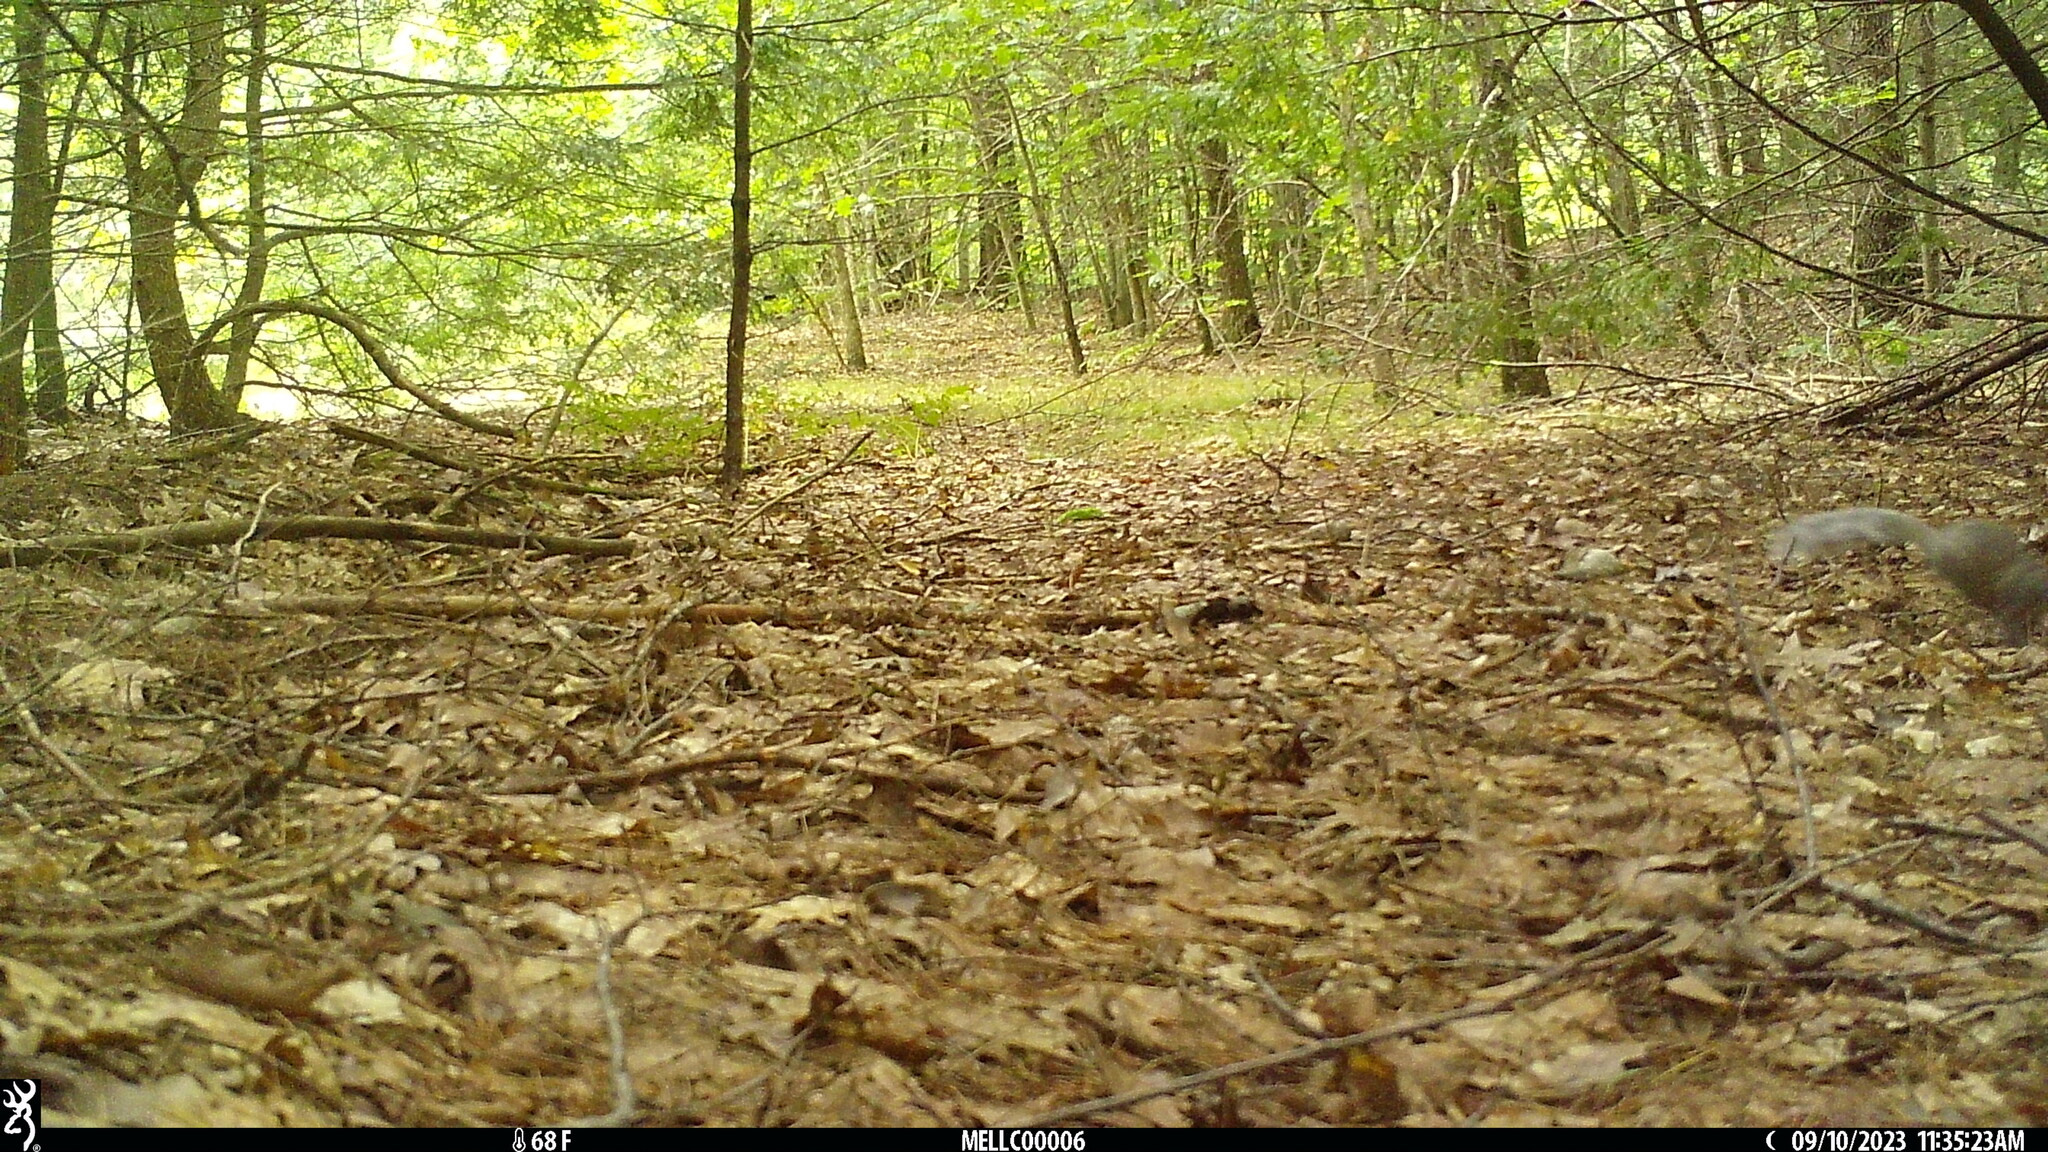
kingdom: Animalia
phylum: Chordata
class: Mammalia
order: Rodentia
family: Sciuridae
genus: Sciurus
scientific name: Sciurus carolinensis
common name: Eastern gray squirrel
